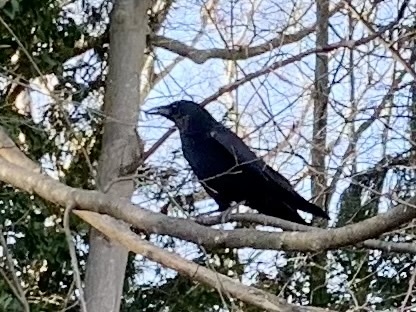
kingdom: Animalia
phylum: Chordata
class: Aves
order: Passeriformes
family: Corvidae
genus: Corvus
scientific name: Corvus corone
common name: Carrion crow
